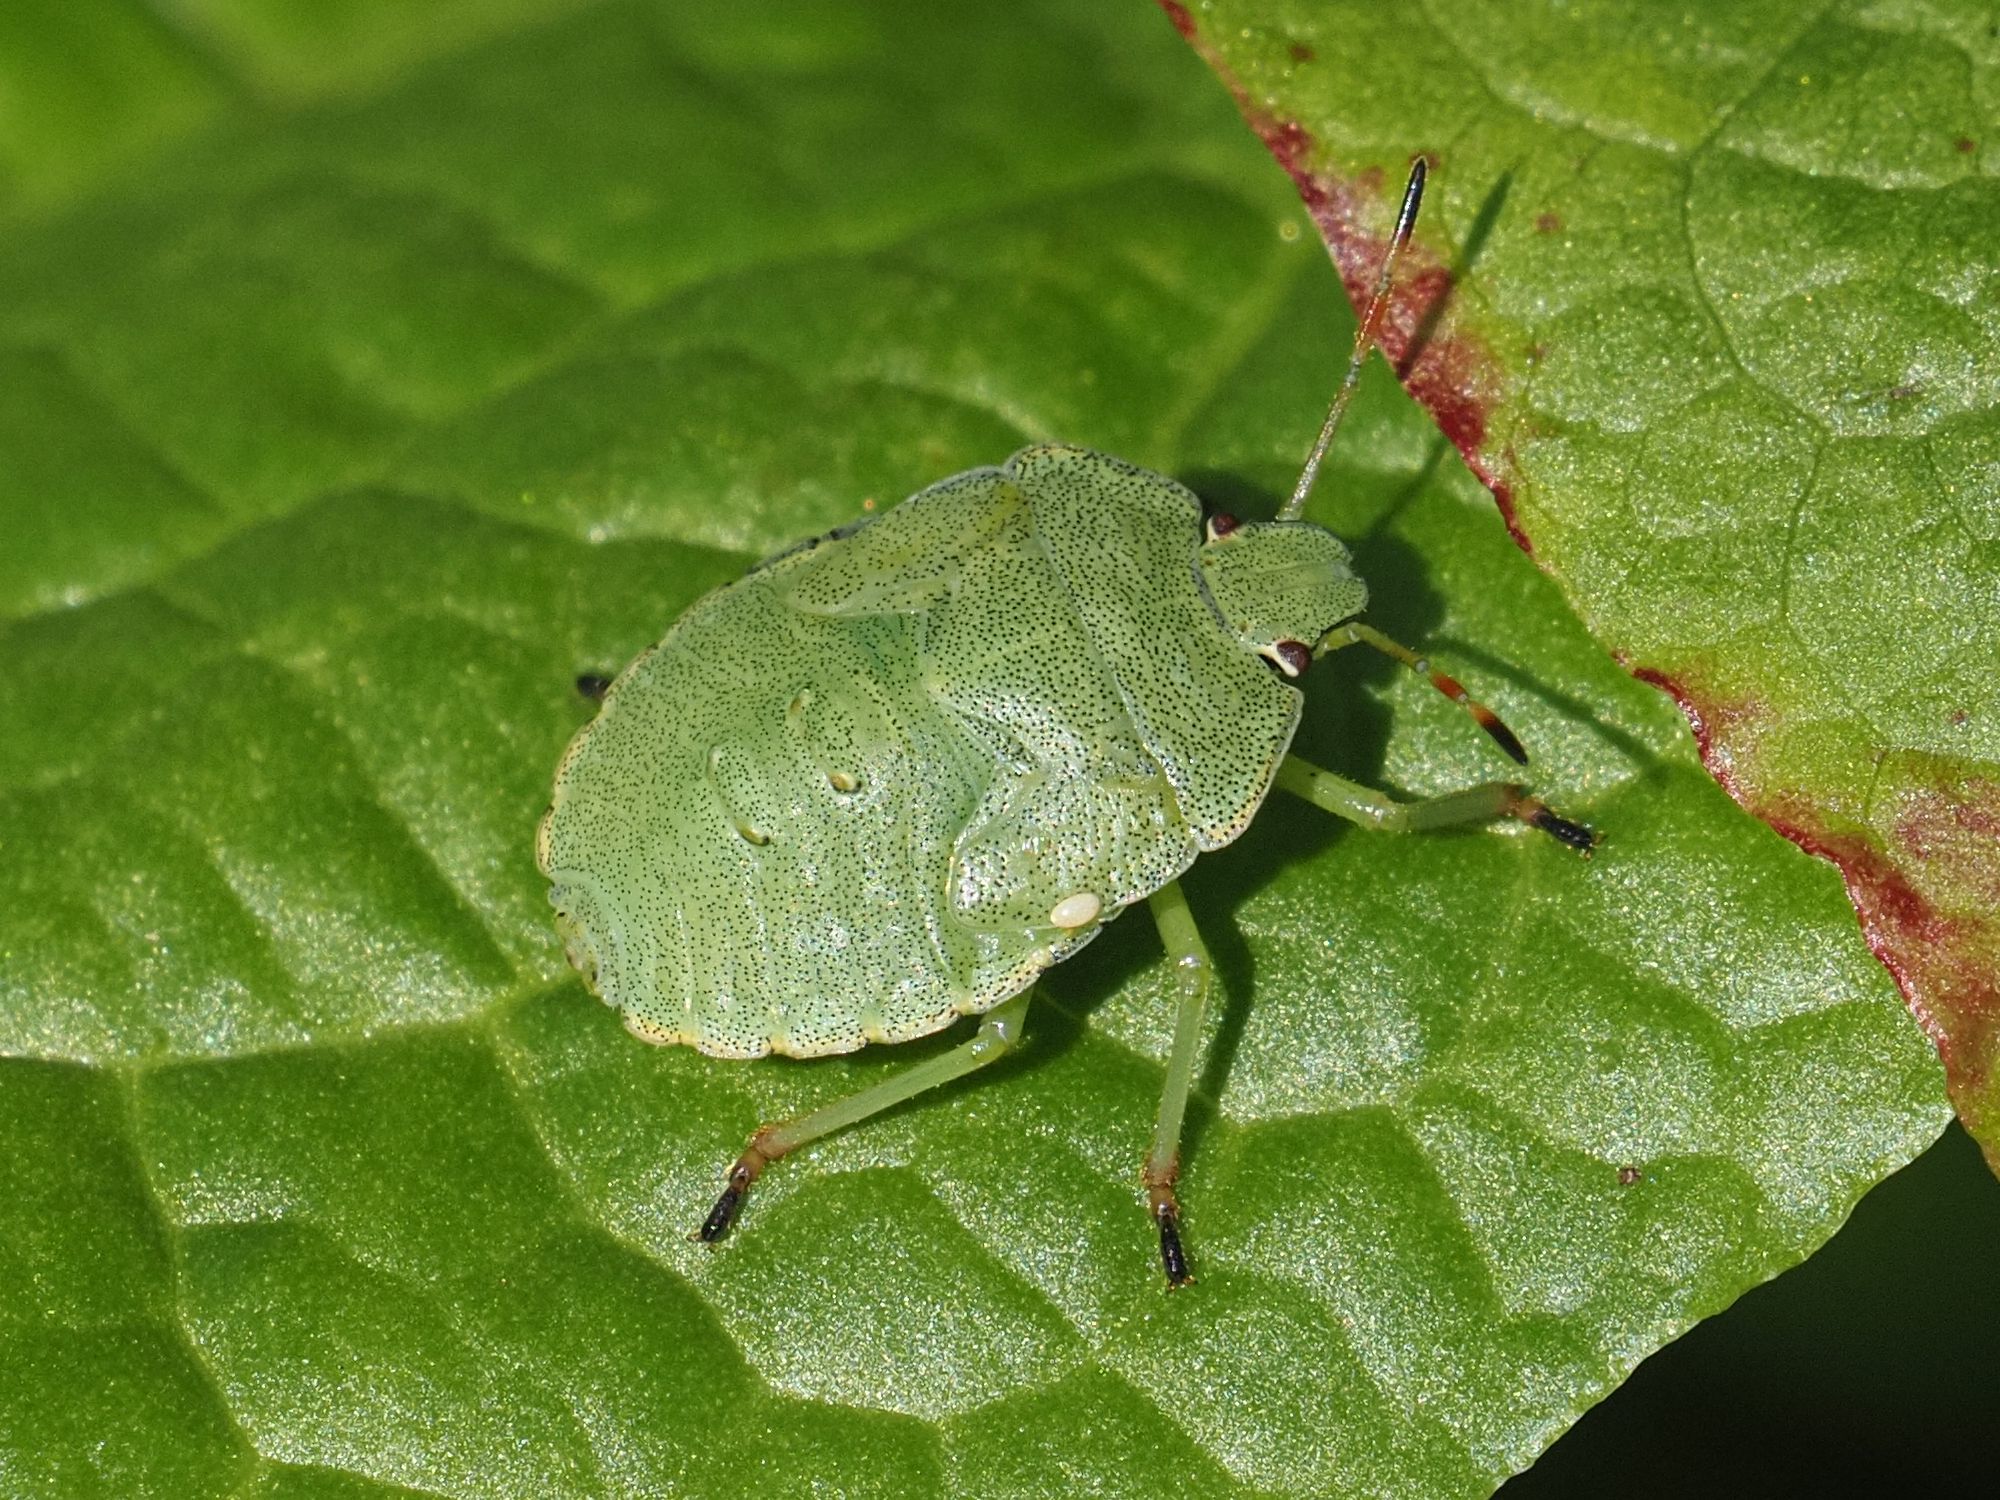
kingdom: Animalia
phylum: Arthropoda
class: Insecta
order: Hemiptera
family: Pentatomidae
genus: Palomena
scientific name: Palomena prasina
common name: Green shieldbug
